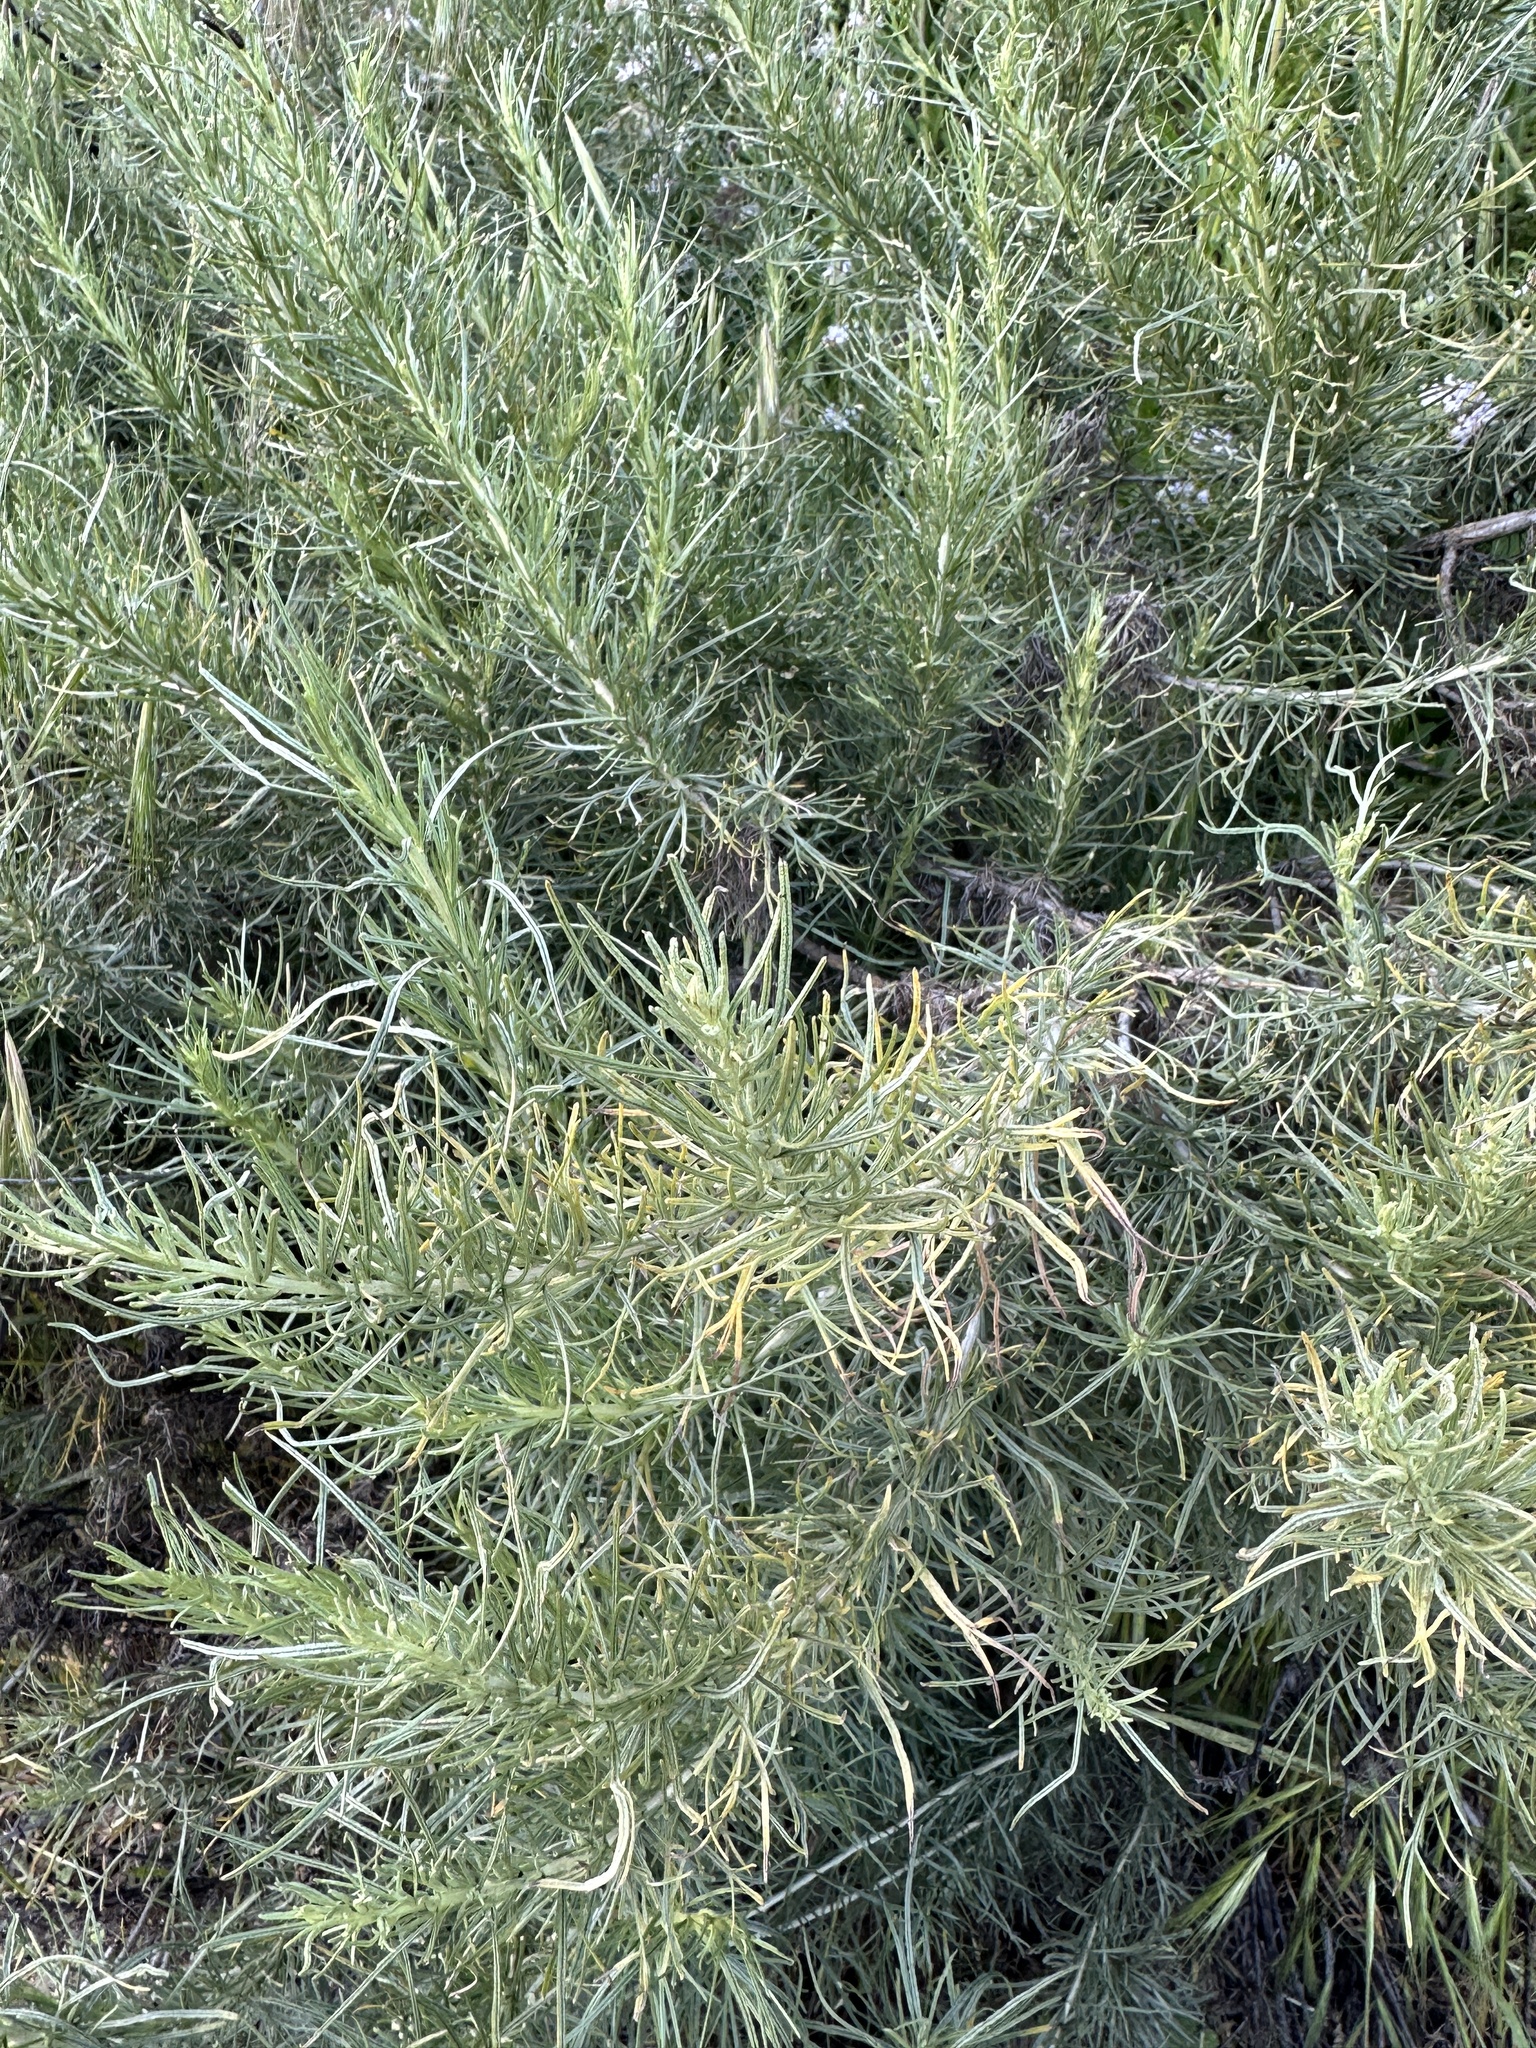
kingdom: Plantae
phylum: Tracheophyta
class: Magnoliopsida
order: Asterales
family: Asteraceae
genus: Artemisia
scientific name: Artemisia californica
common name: California sagebrush
